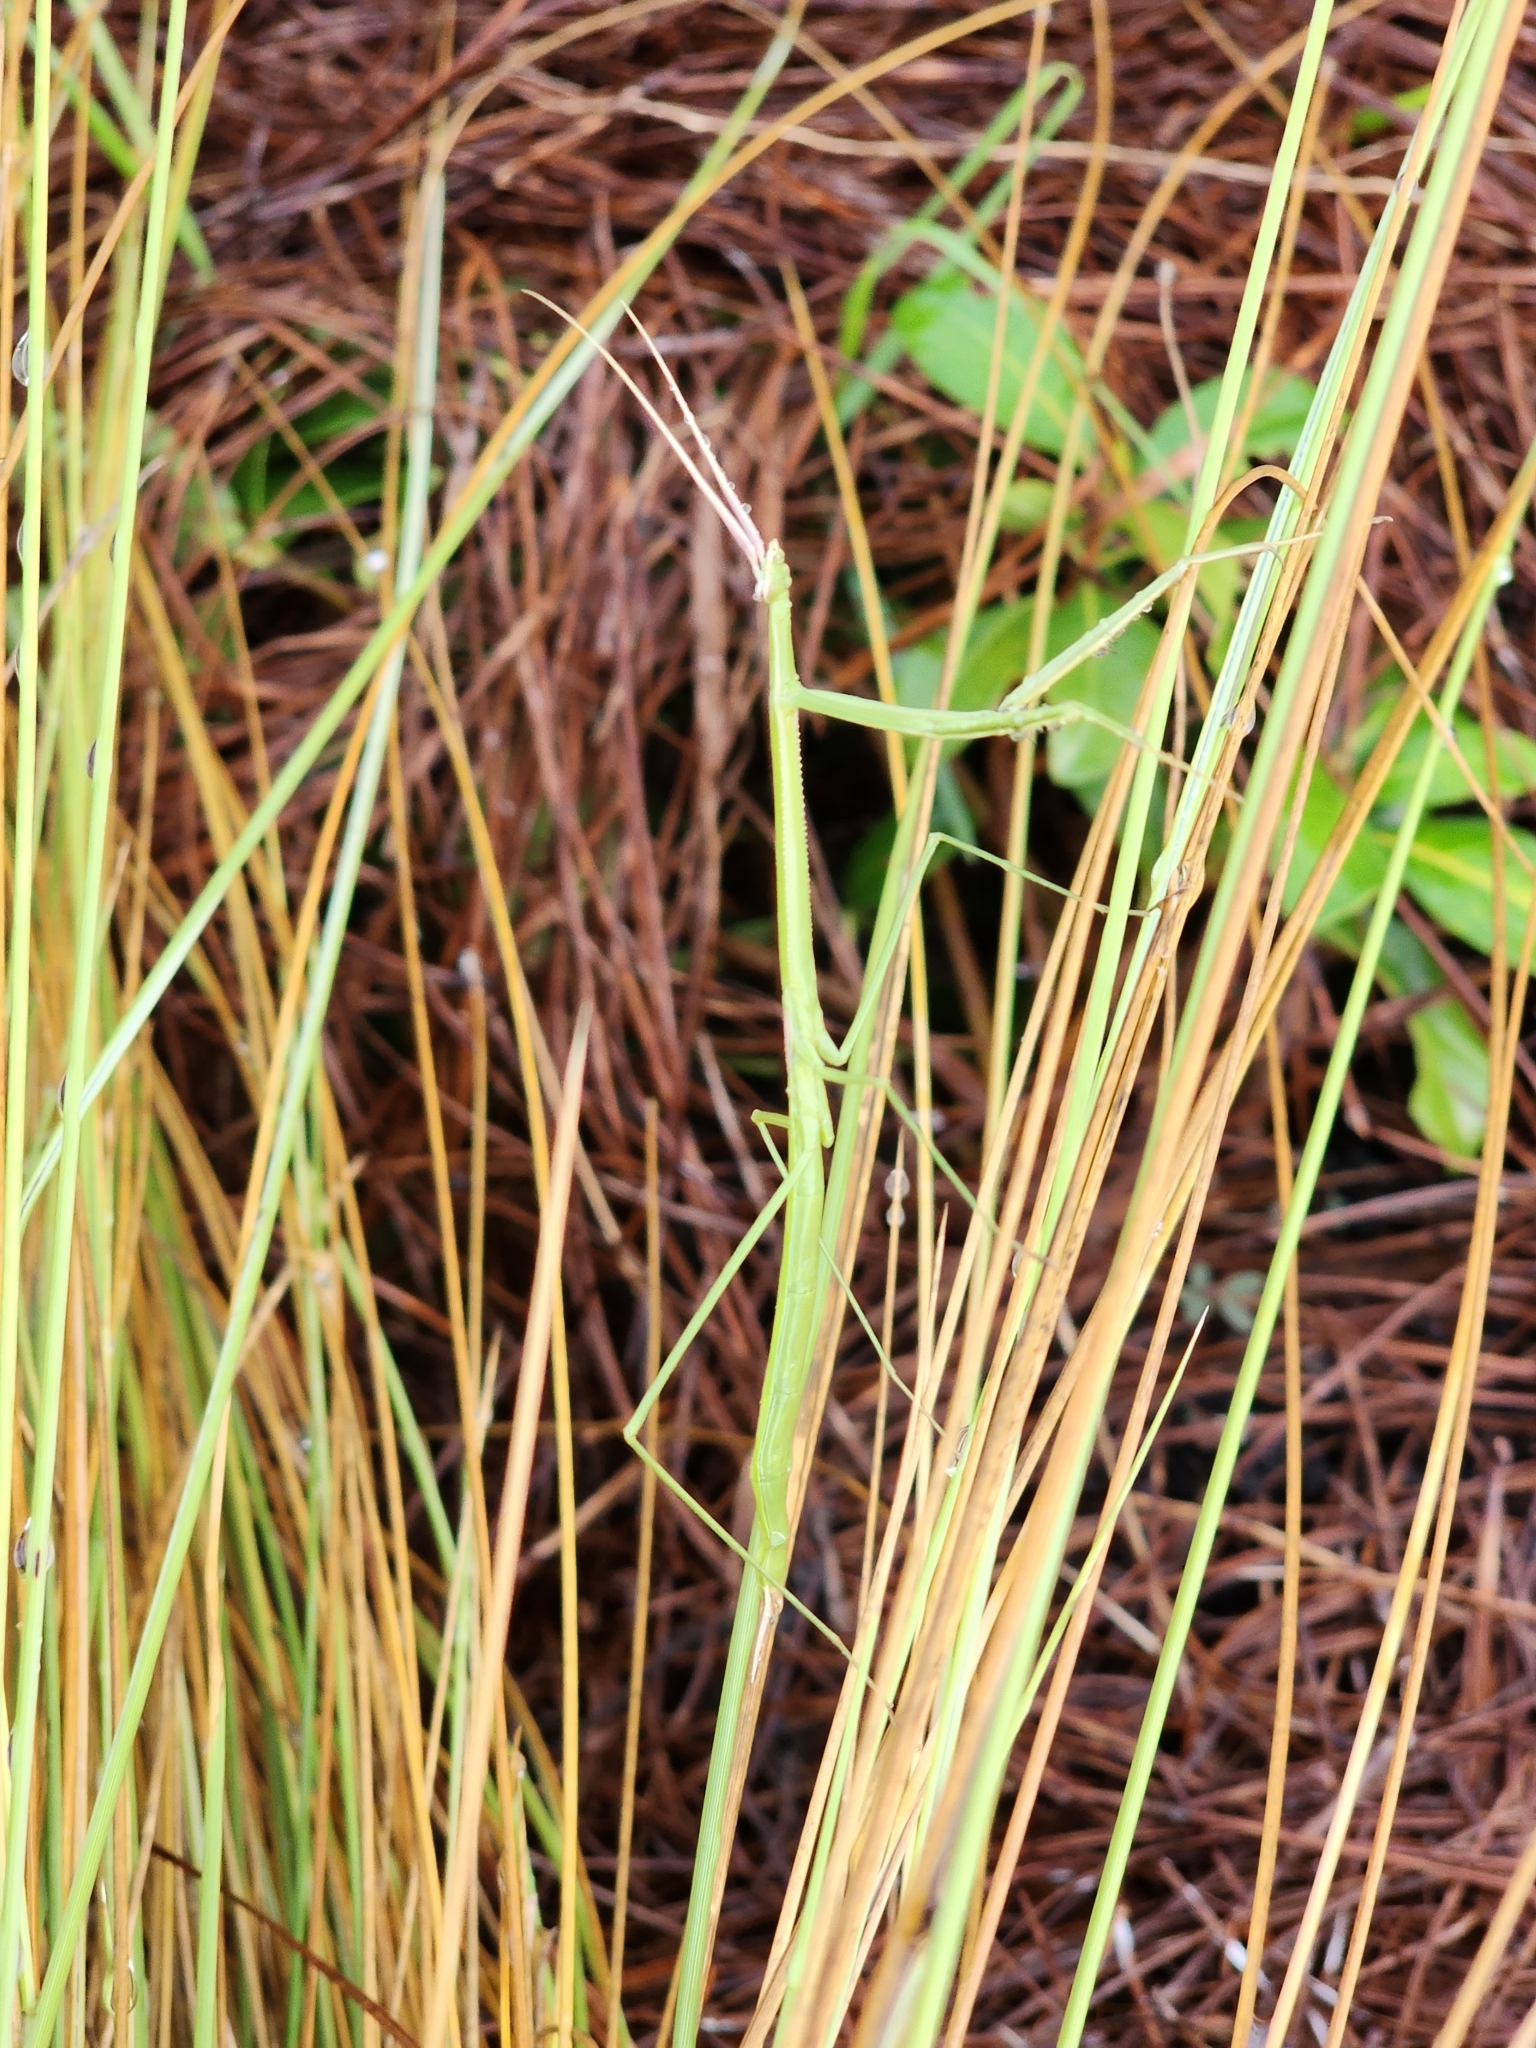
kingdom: Animalia
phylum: Arthropoda
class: Insecta
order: Mantodea
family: Coptopterygidae
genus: Brunneria
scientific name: Brunneria borealis
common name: Mantis
